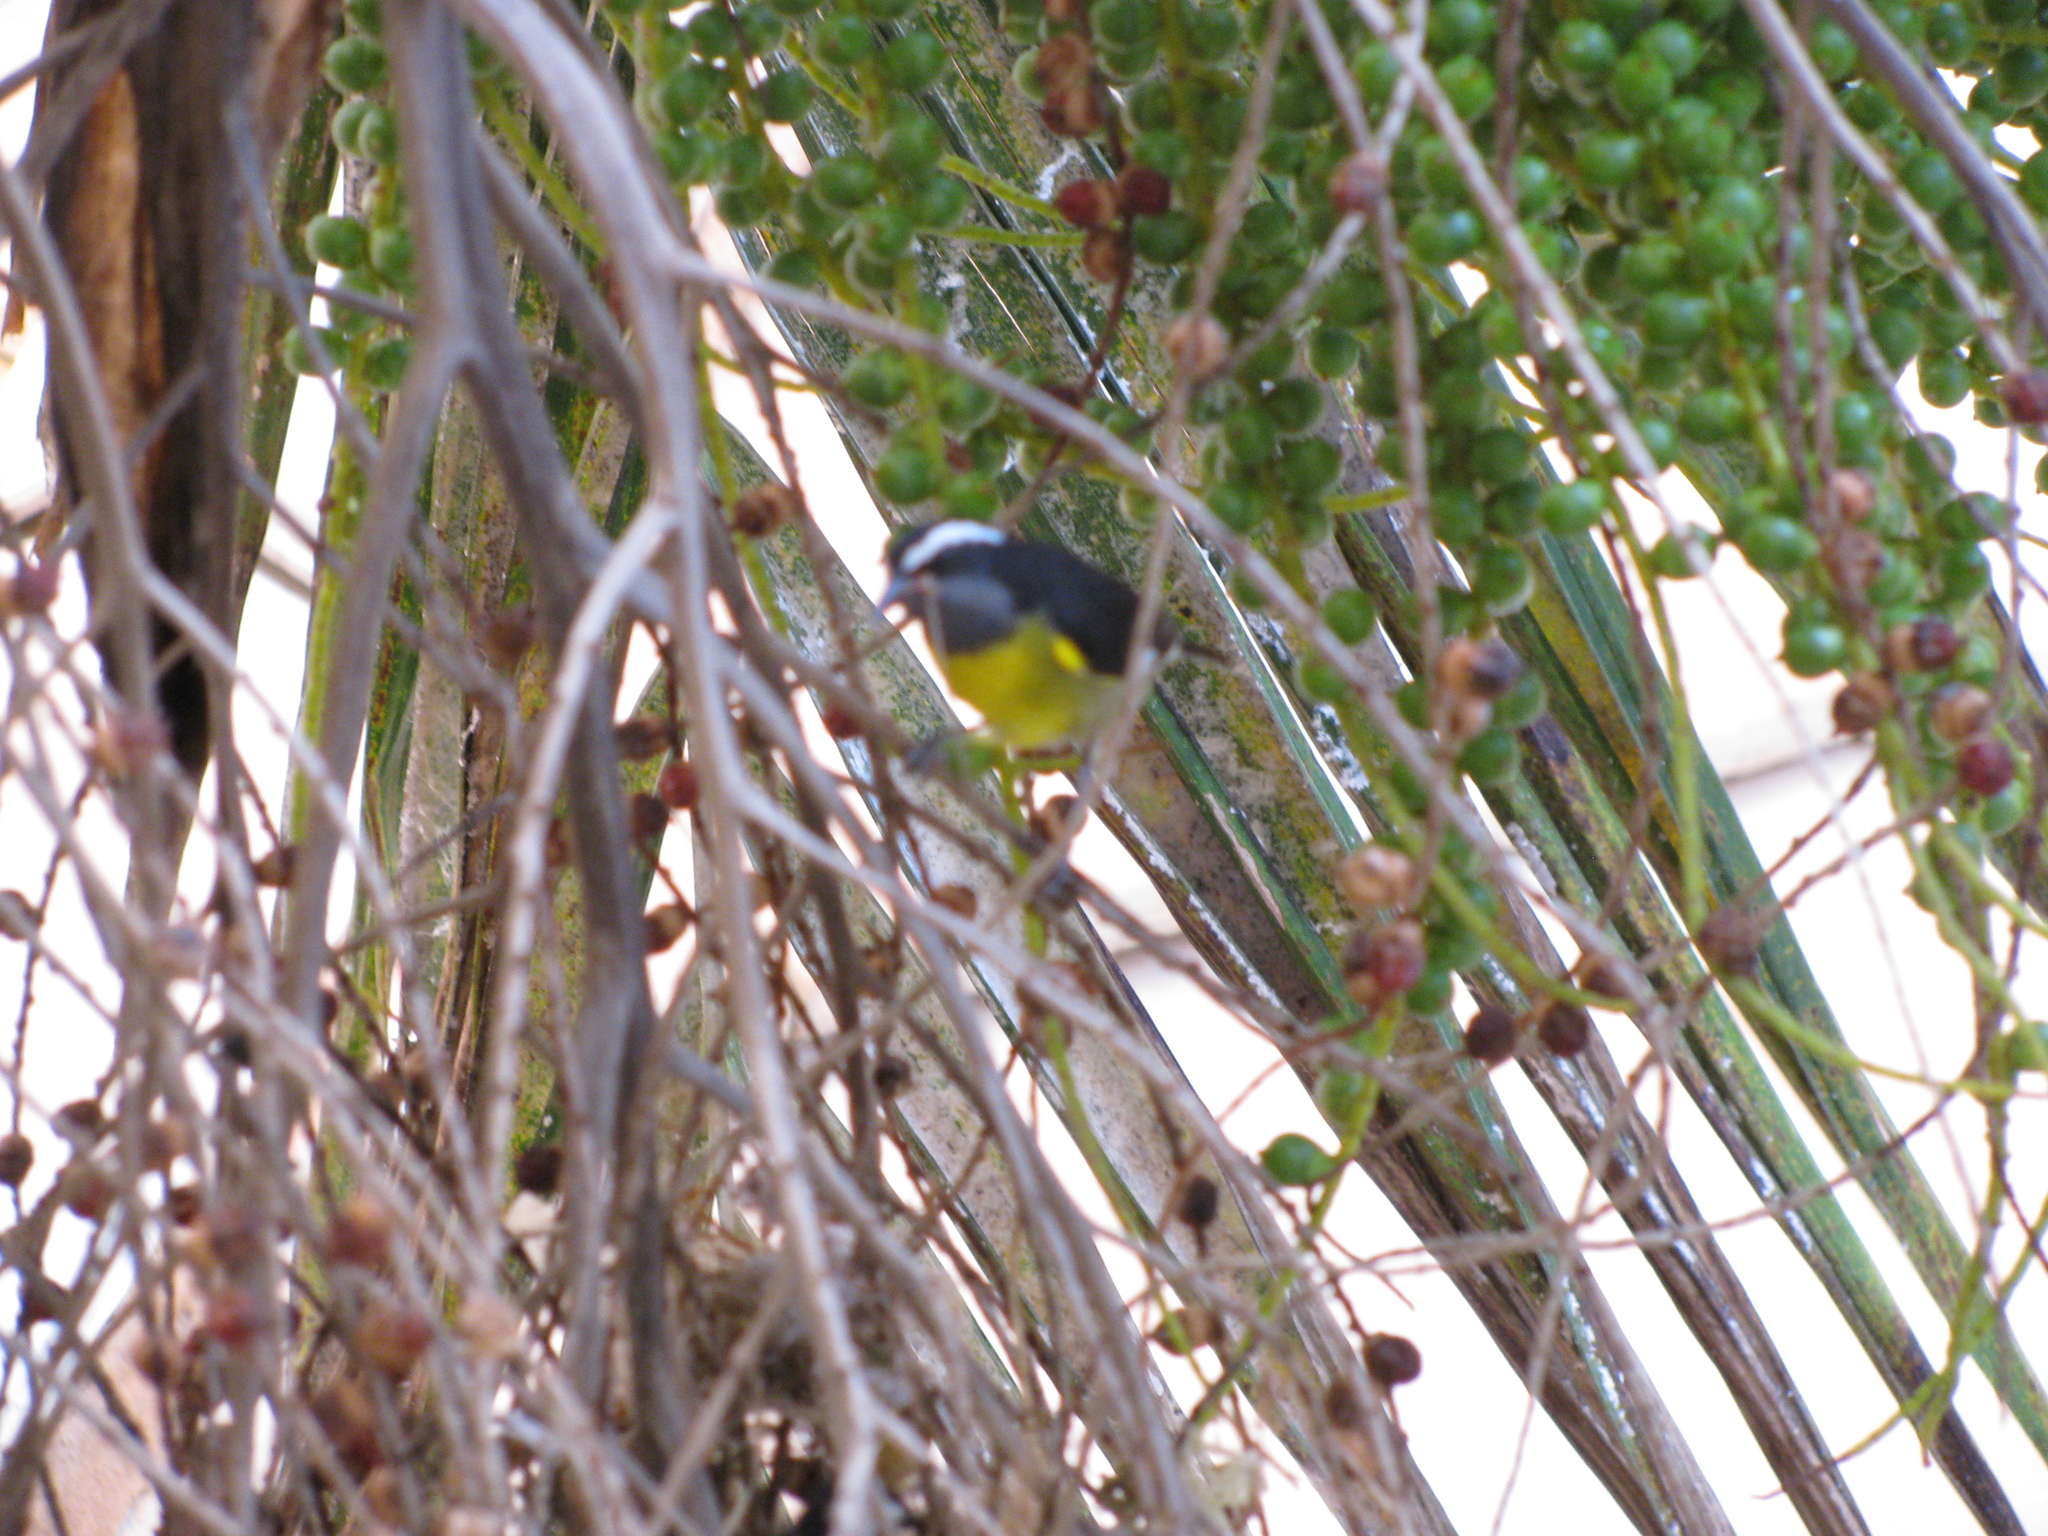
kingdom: Animalia
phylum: Chordata
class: Aves
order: Passeriformes
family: Thraupidae
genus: Coereba
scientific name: Coereba flaveola
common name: Bananaquit
